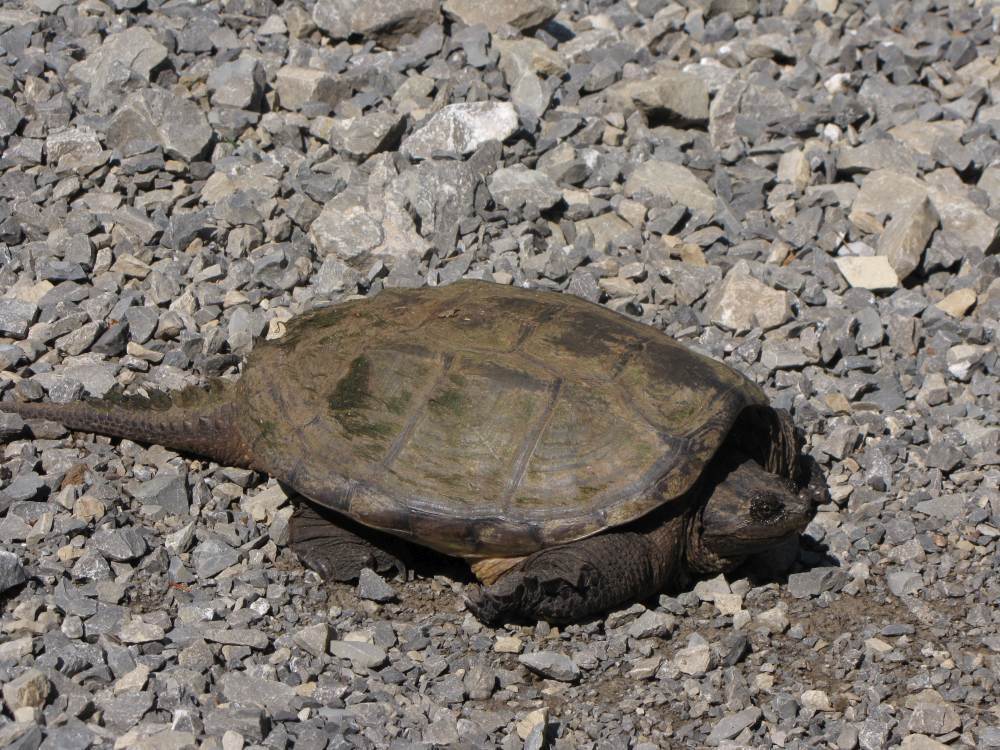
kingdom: Animalia
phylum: Chordata
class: Testudines
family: Chelydridae
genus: Chelydra
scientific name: Chelydra serpentina
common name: Common snapping turtle
